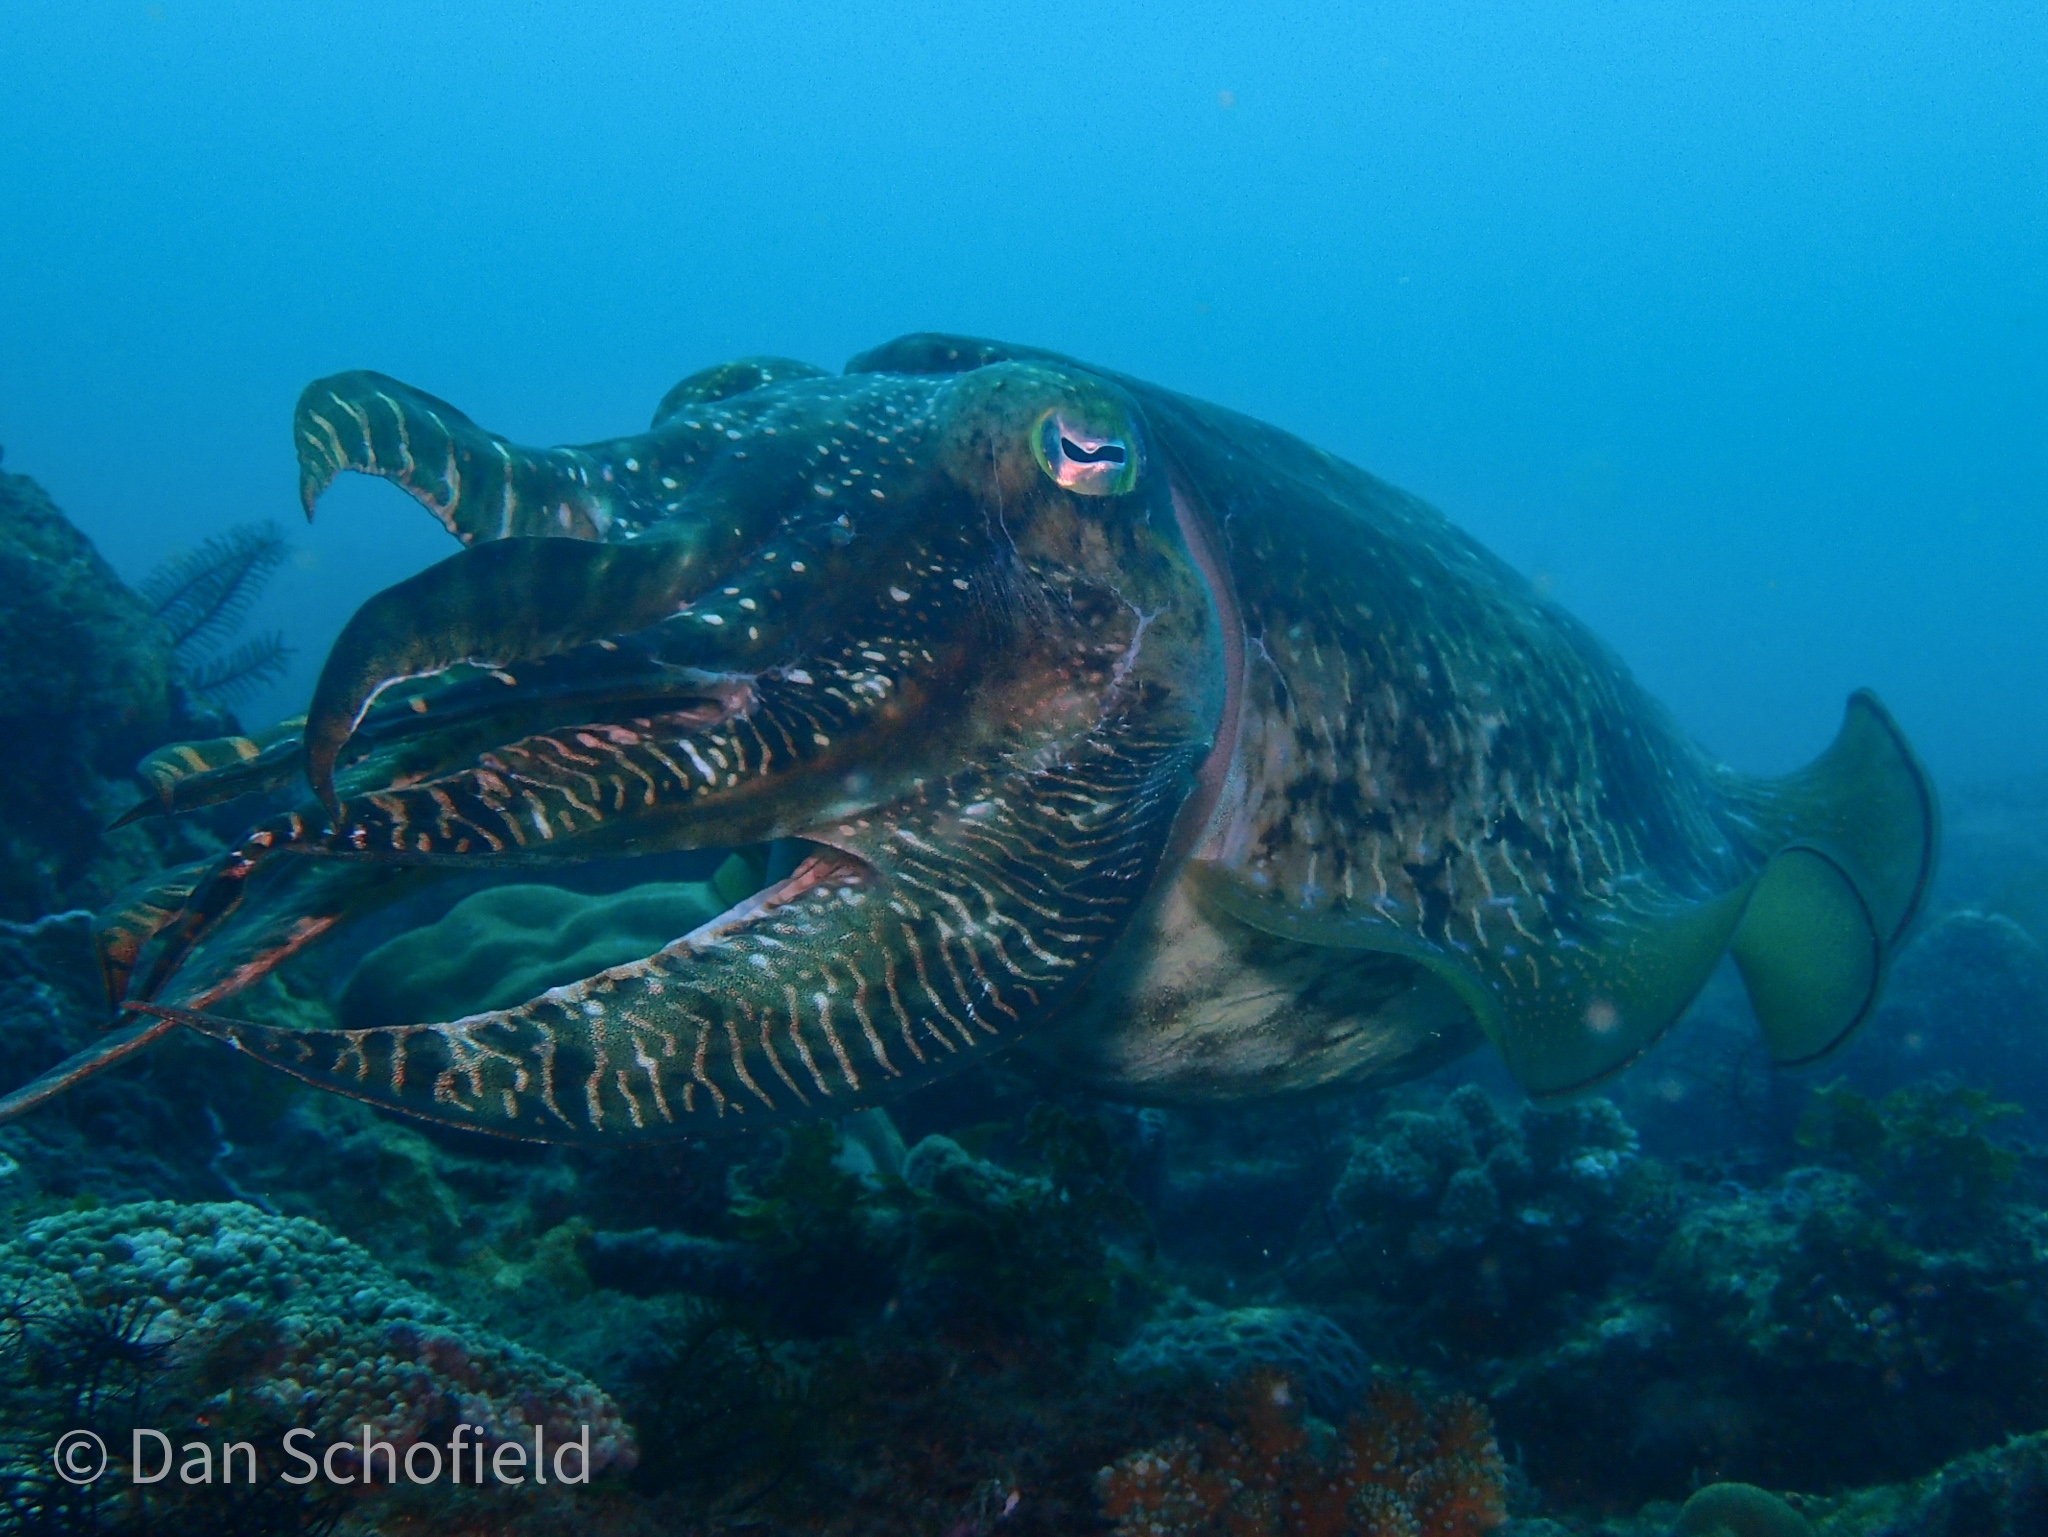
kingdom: Animalia
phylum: Mollusca
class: Cephalopoda
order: Sepiida
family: Sepiidae
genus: Ascarosepion
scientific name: Ascarosepion latimanus
